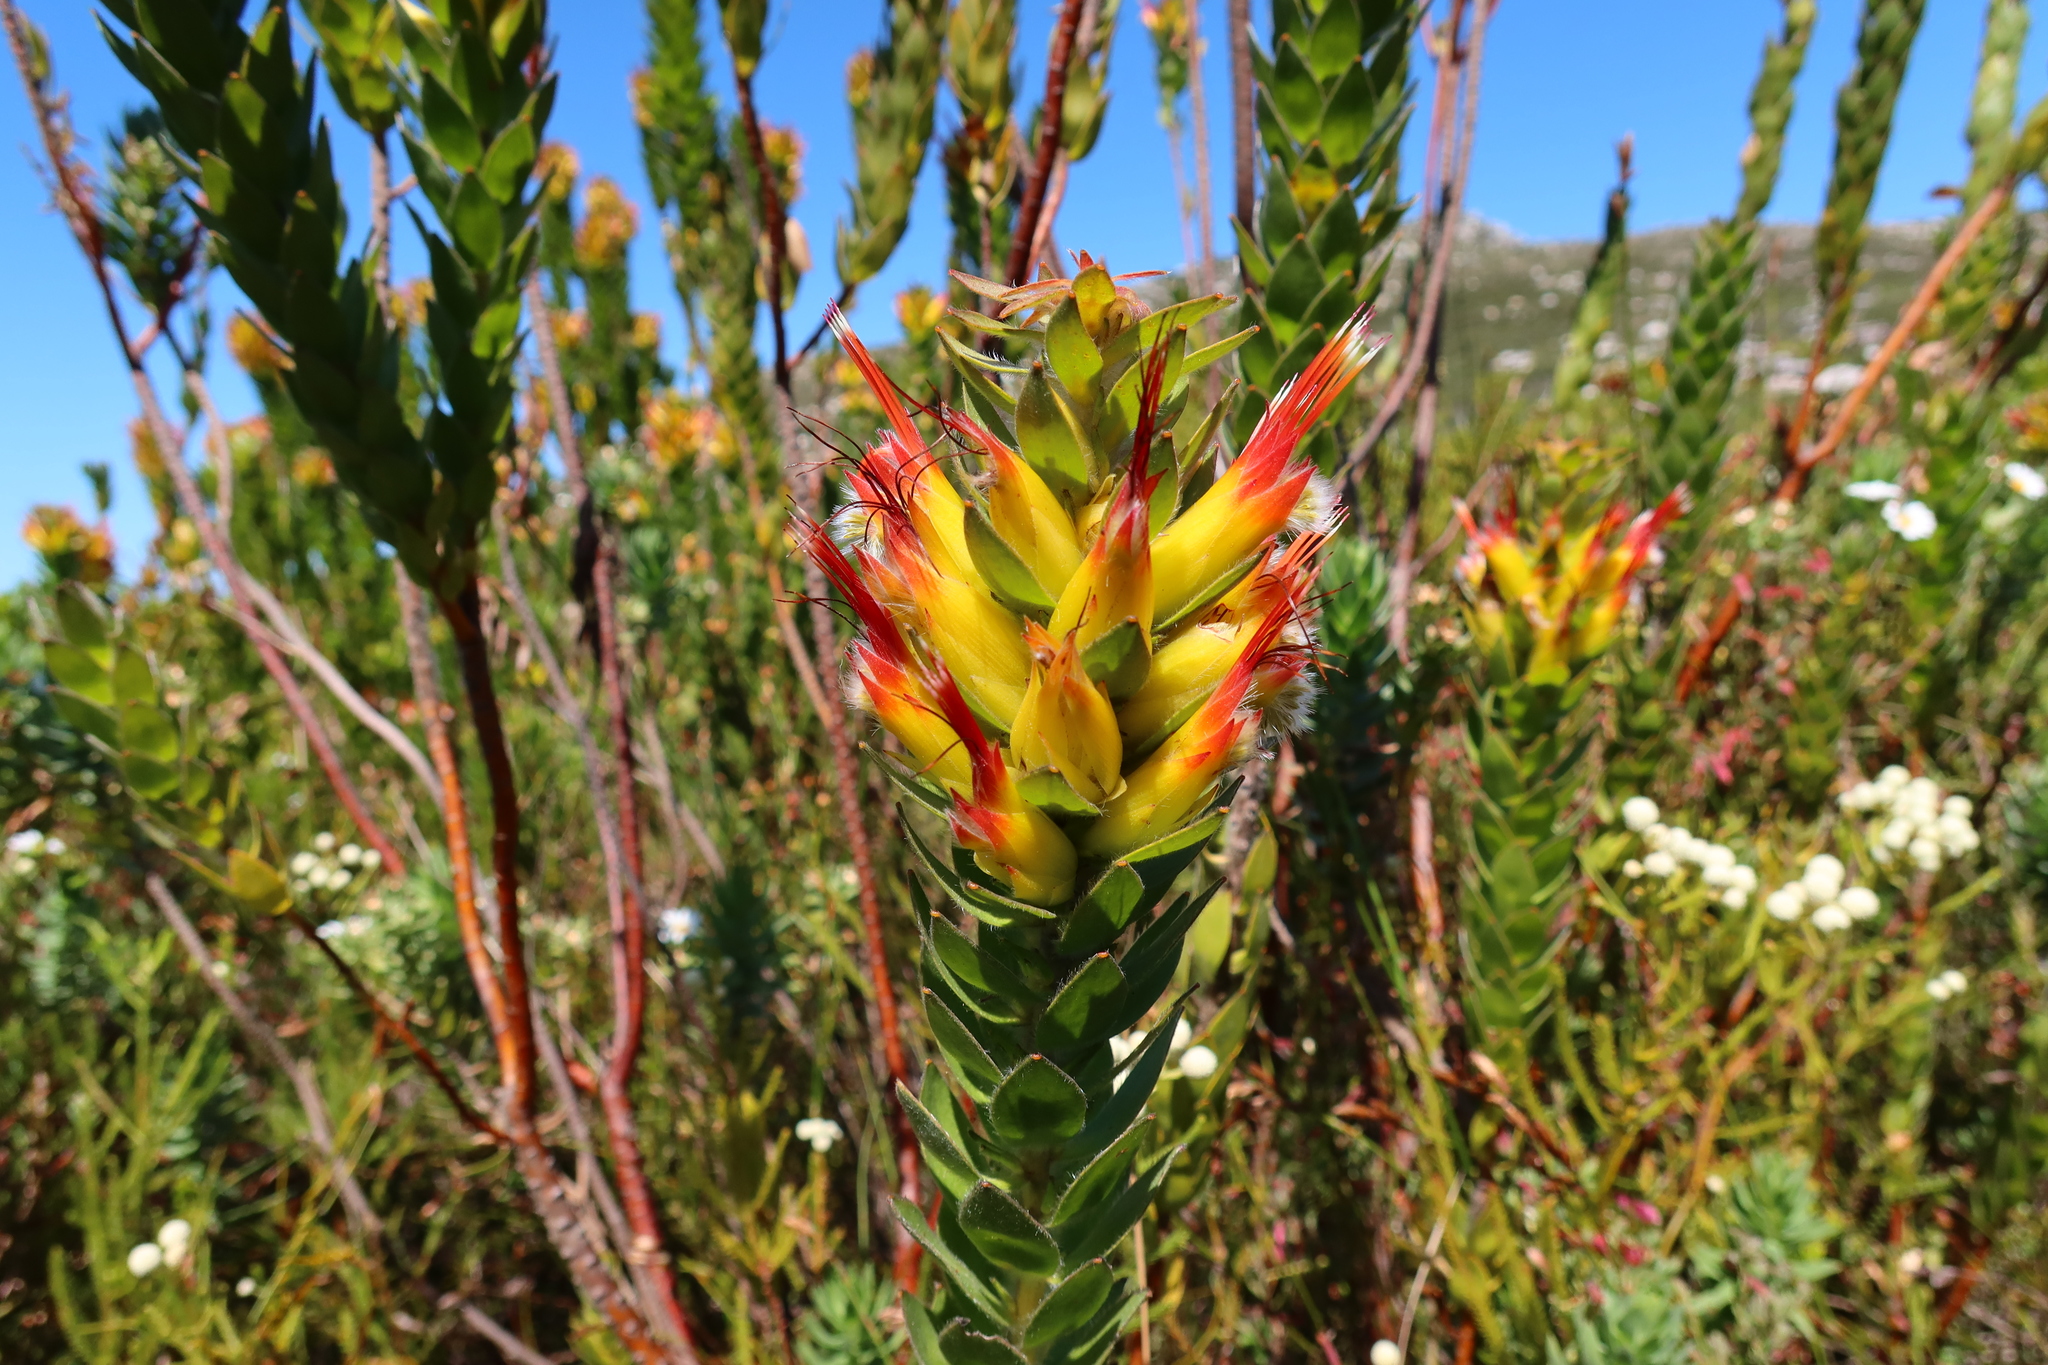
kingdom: Plantae
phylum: Tracheophyta
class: Magnoliopsida
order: Proteales
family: Proteaceae
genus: Mimetes
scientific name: Mimetes hirtus
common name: Marsh pagoda
